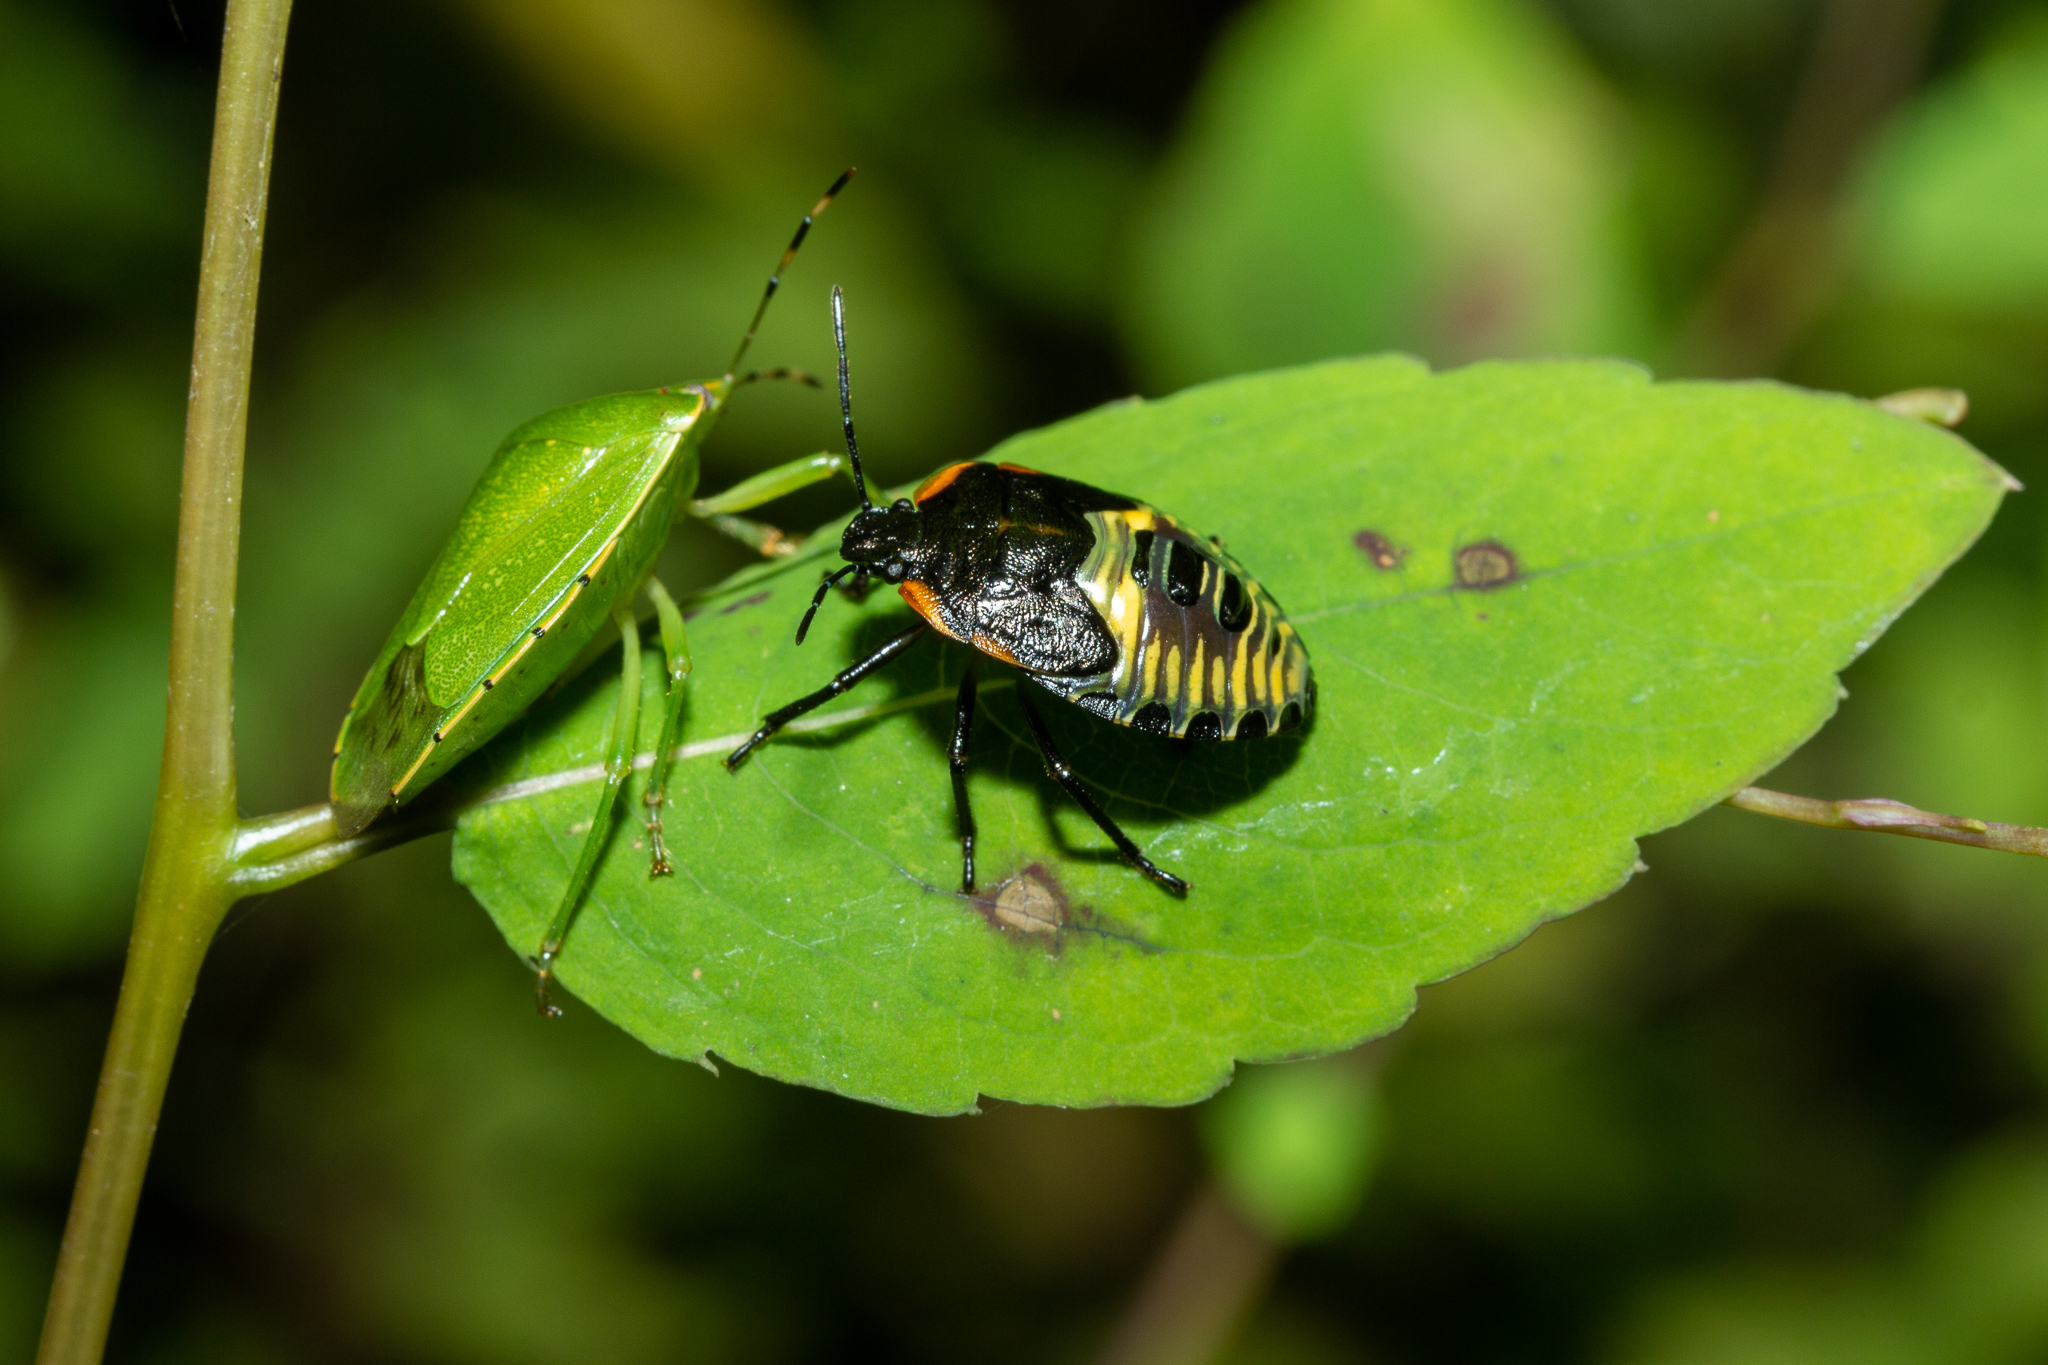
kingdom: Animalia
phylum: Arthropoda
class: Insecta
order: Hemiptera
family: Pentatomidae
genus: Chinavia
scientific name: Chinavia hilaris
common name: Green stink bug
